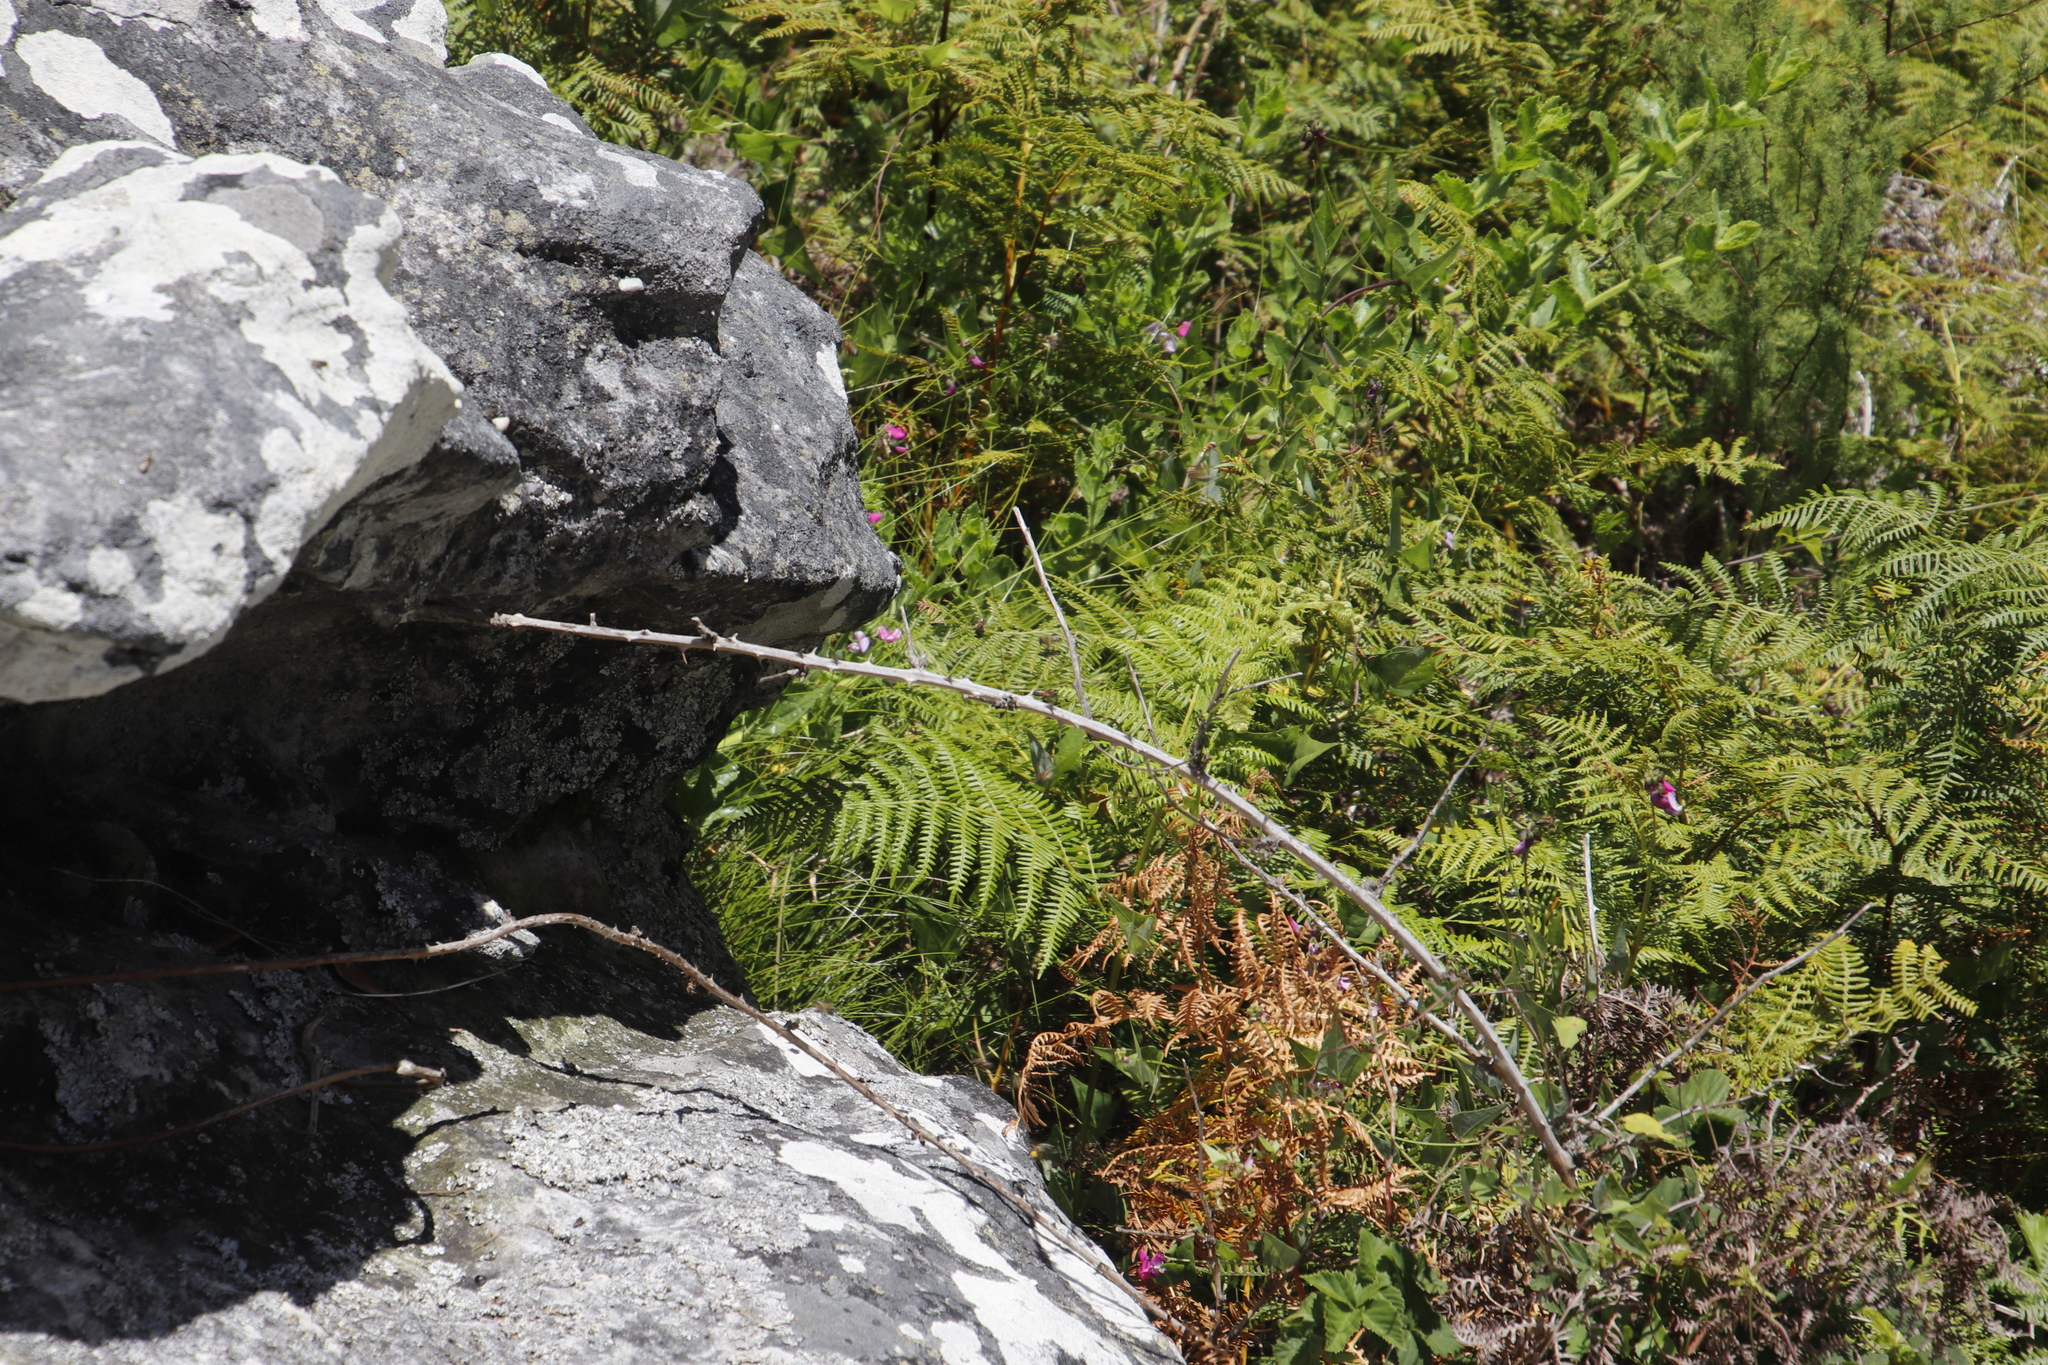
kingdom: Plantae
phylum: Tracheophyta
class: Polypodiopsida
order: Polypodiales
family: Dennstaedtiaceae
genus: Pteridium
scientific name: Pteridium aquilinum
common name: Bracken
